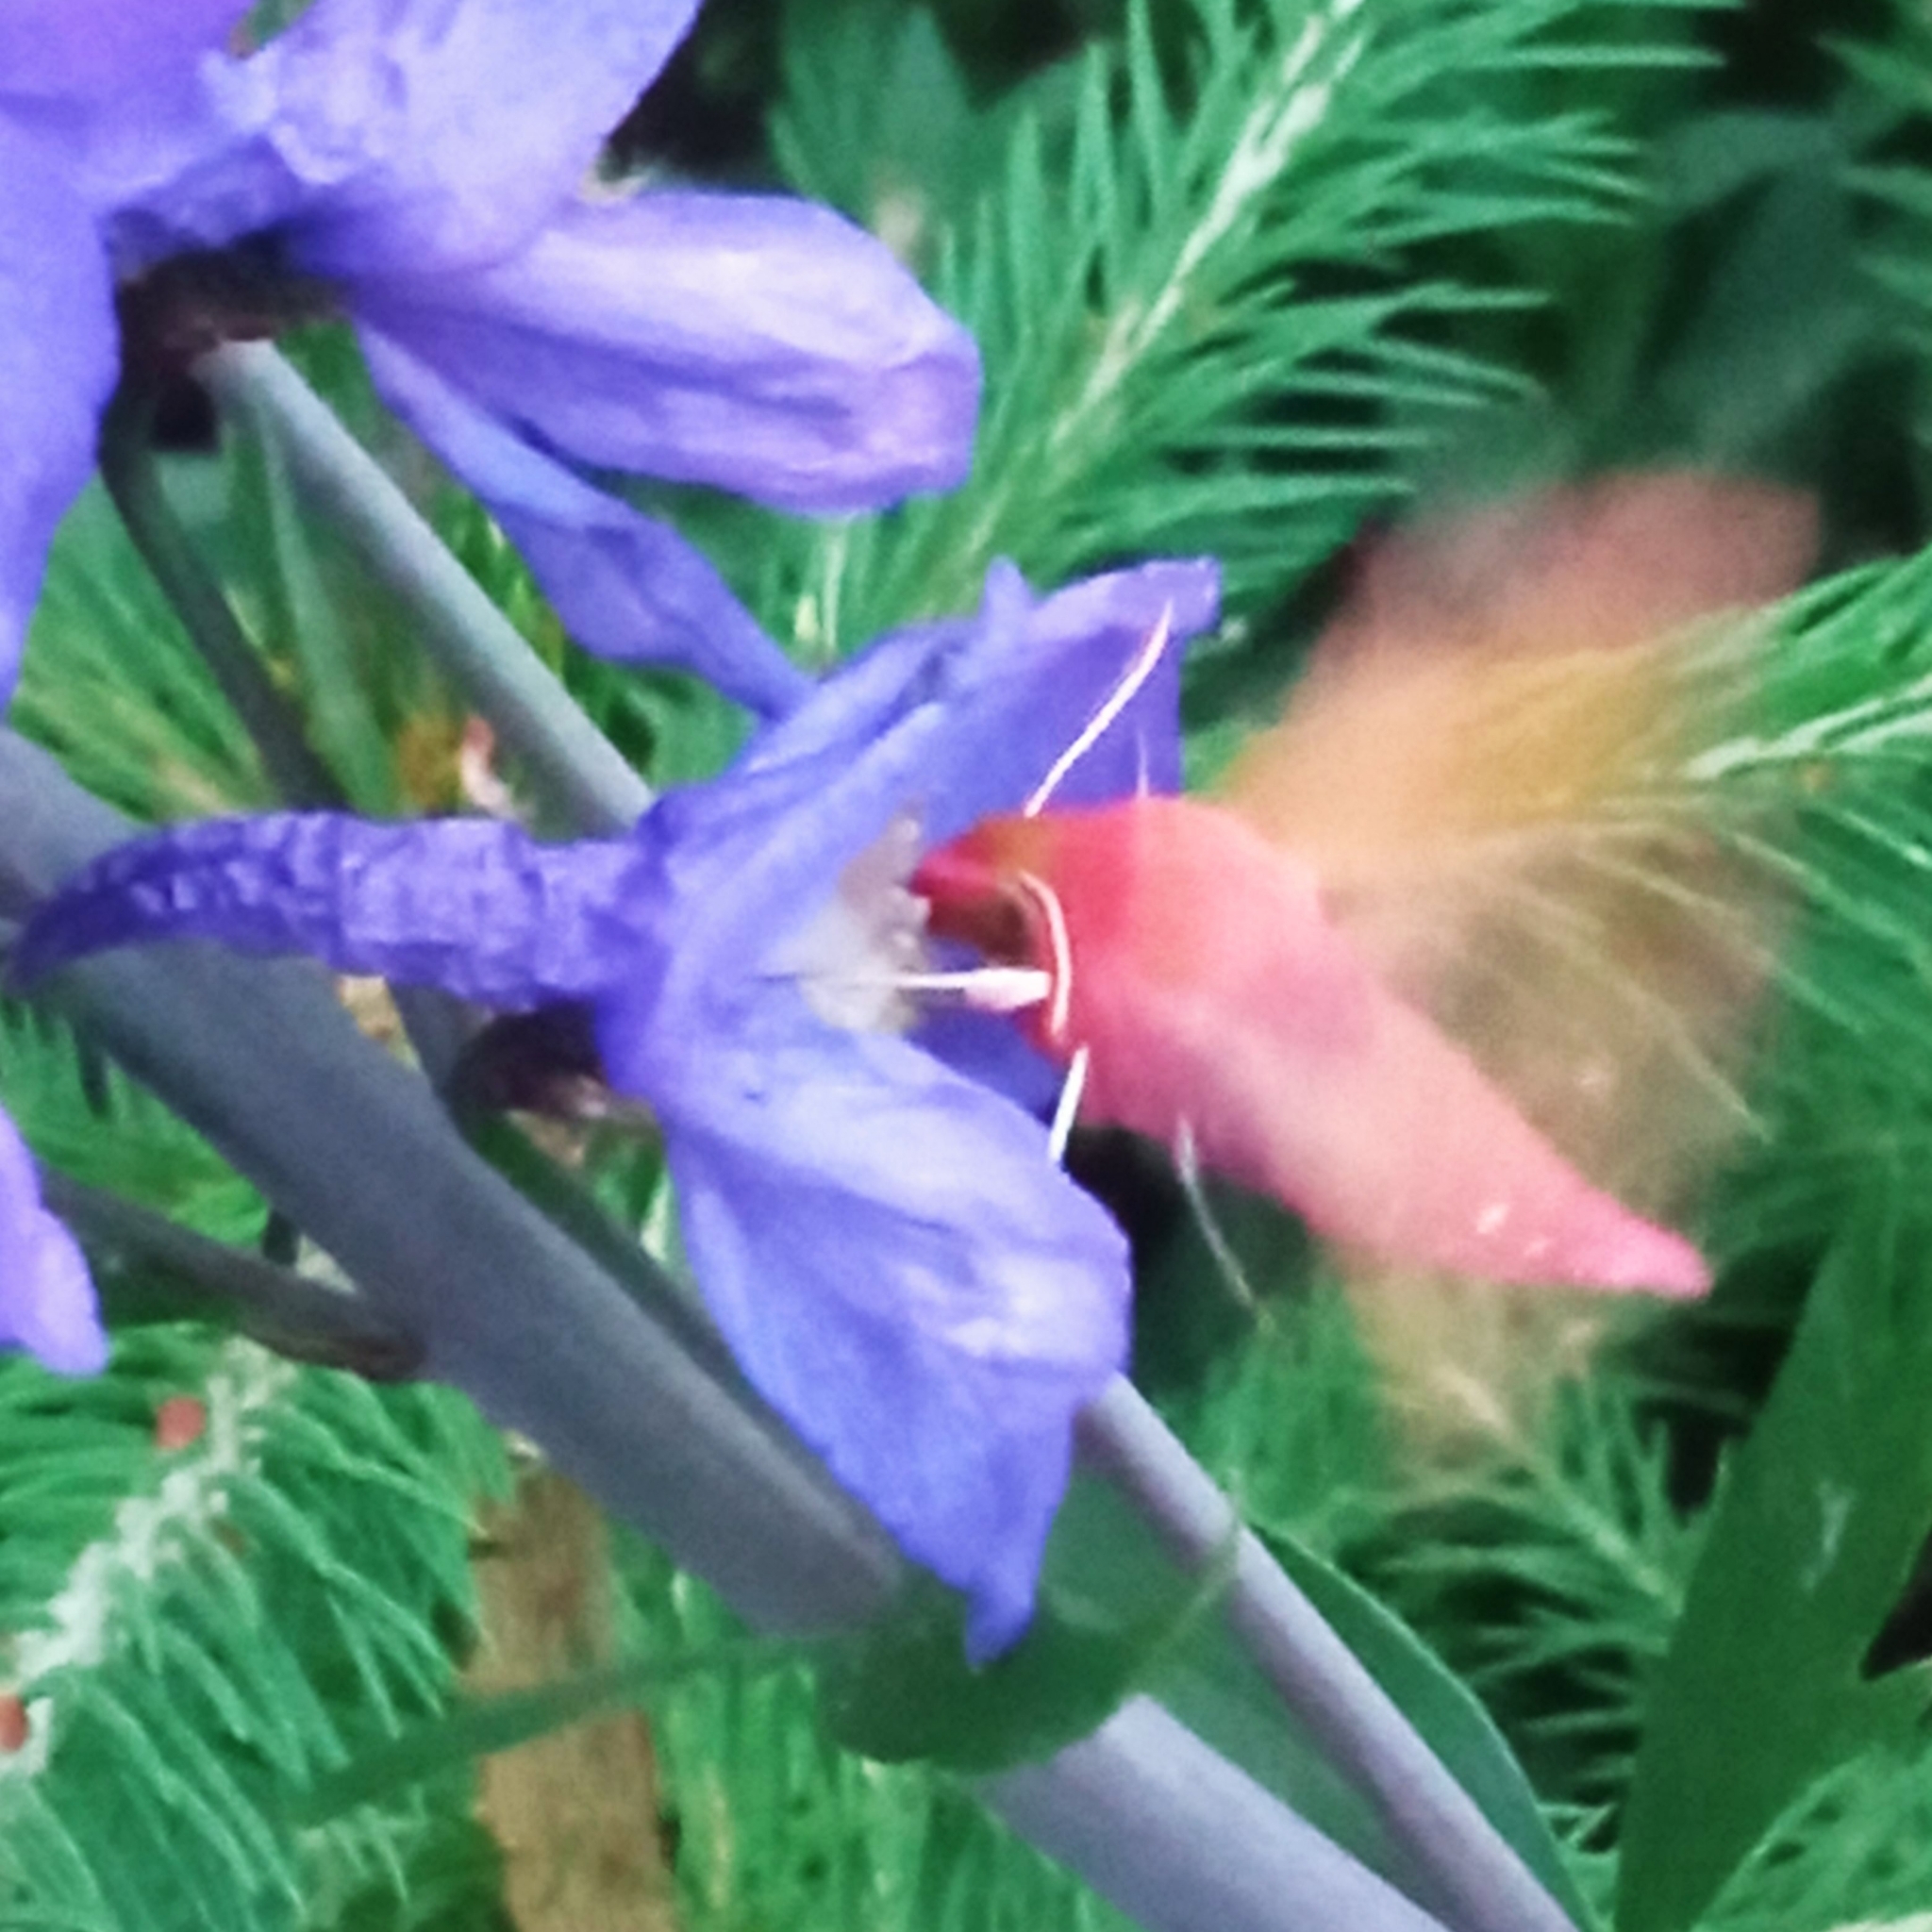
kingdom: Animalia
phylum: Arthropoda
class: Insecta
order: Lepidoptera
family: Sphingidae
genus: Deilephila
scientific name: Deilephila porcellus
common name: Small elephant hawk-moth
